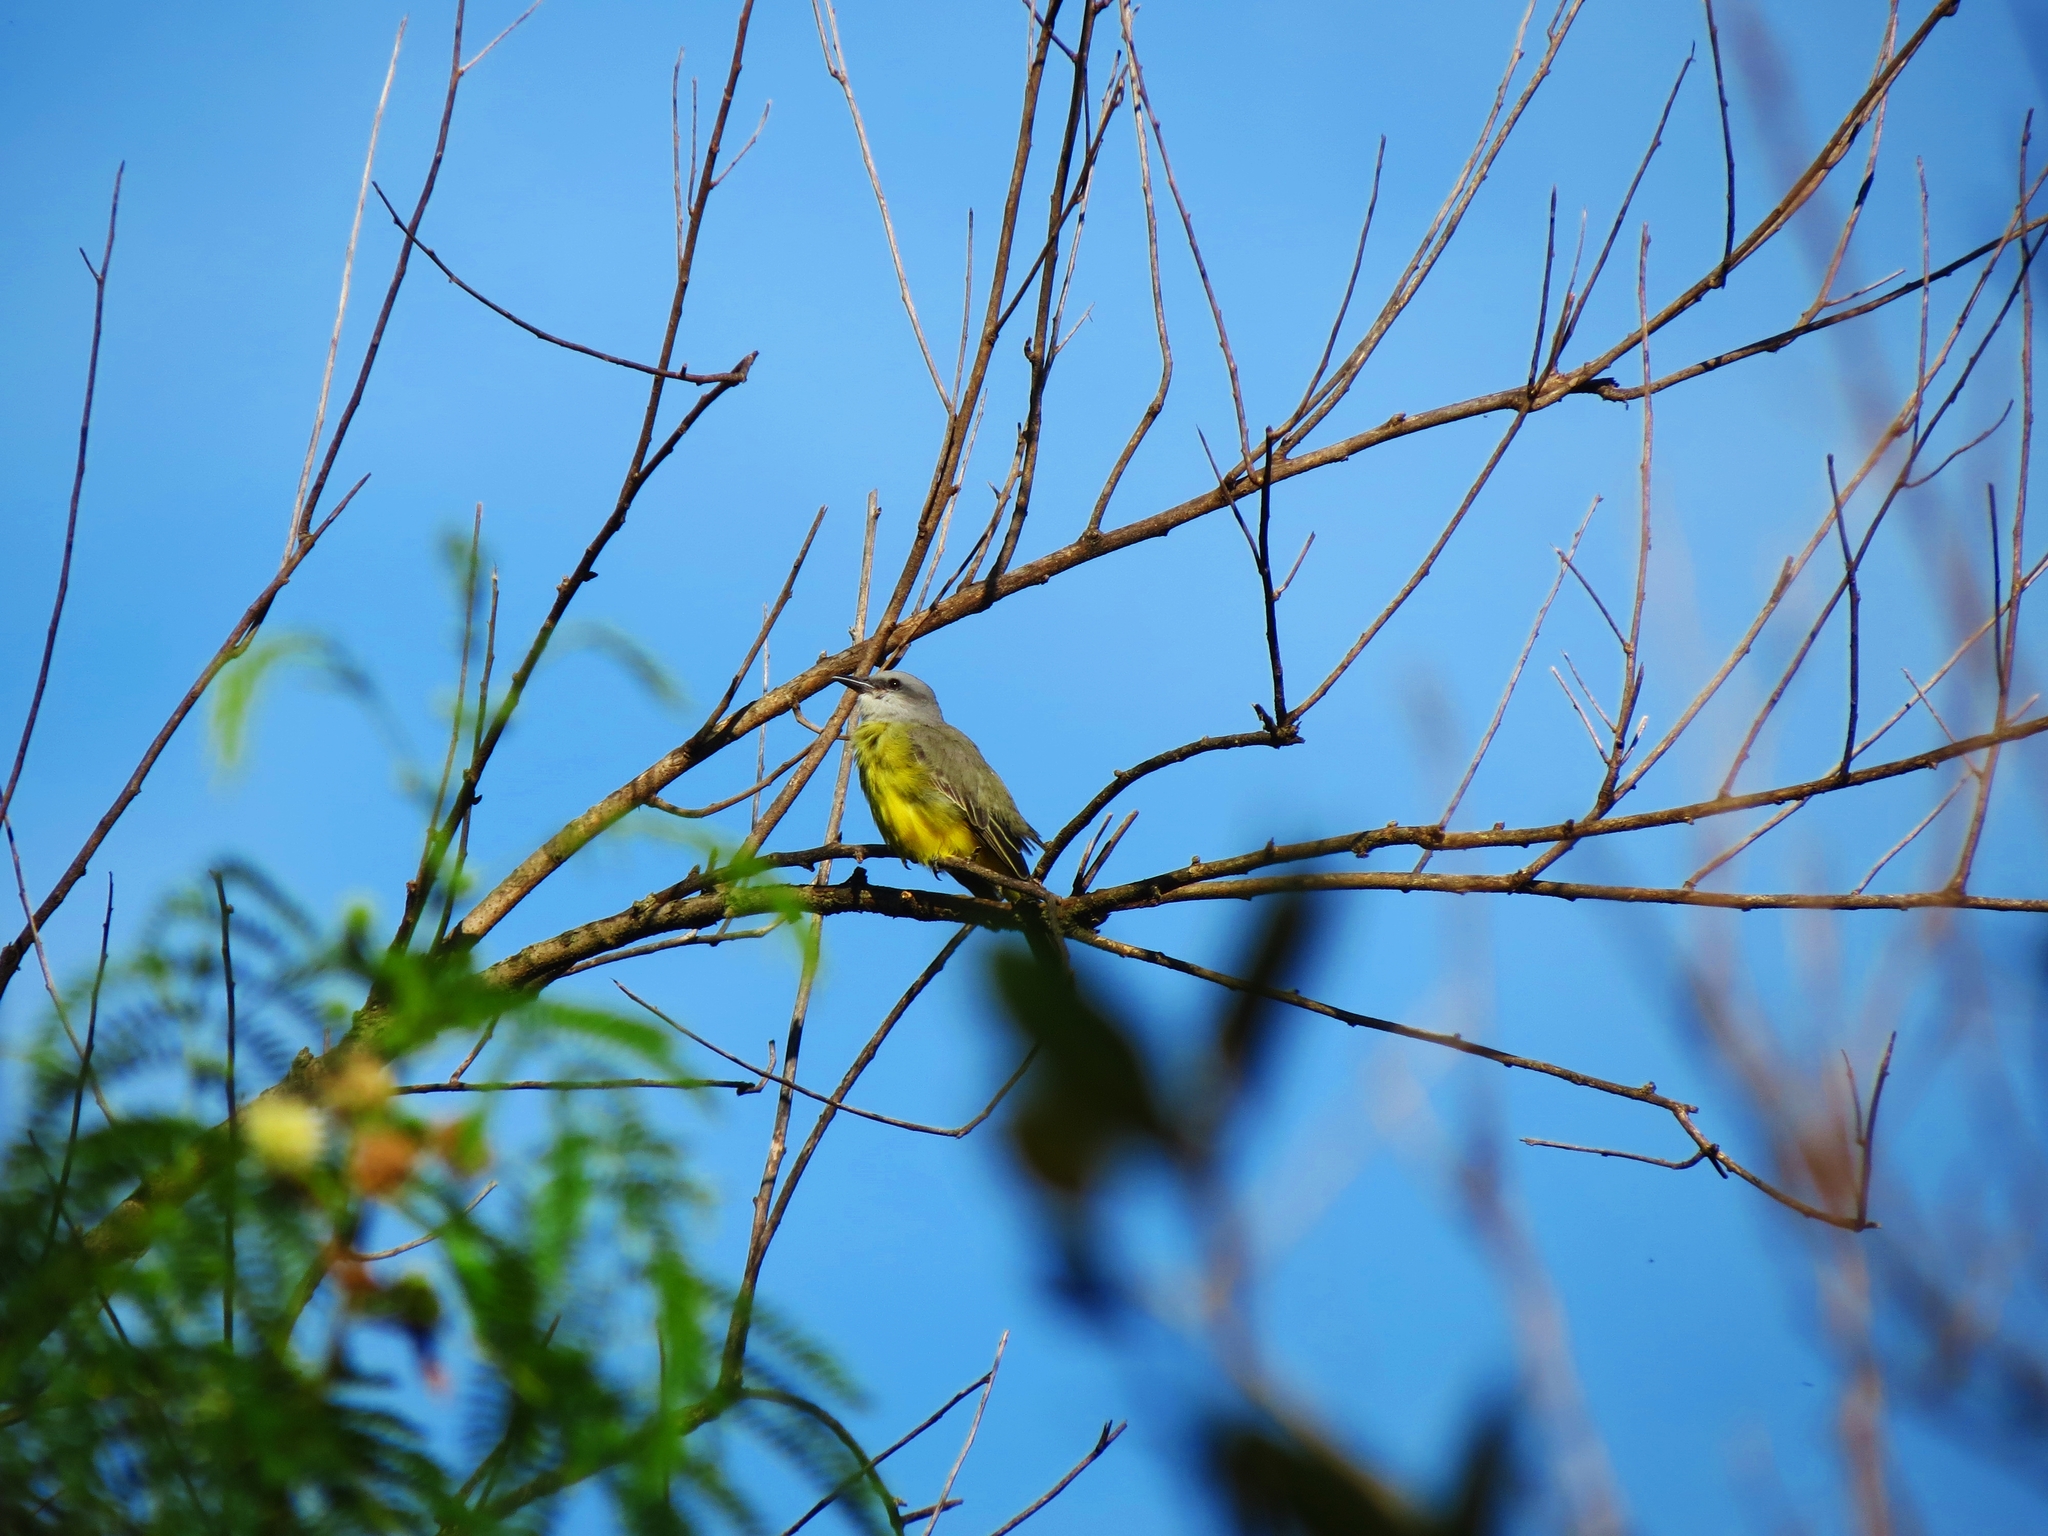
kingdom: Animalia
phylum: Chordata
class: Aves
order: Passeriformes
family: Tyrannidae
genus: Tyrannus
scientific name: Tyrannus melancholicus
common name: Tropical kingbird
